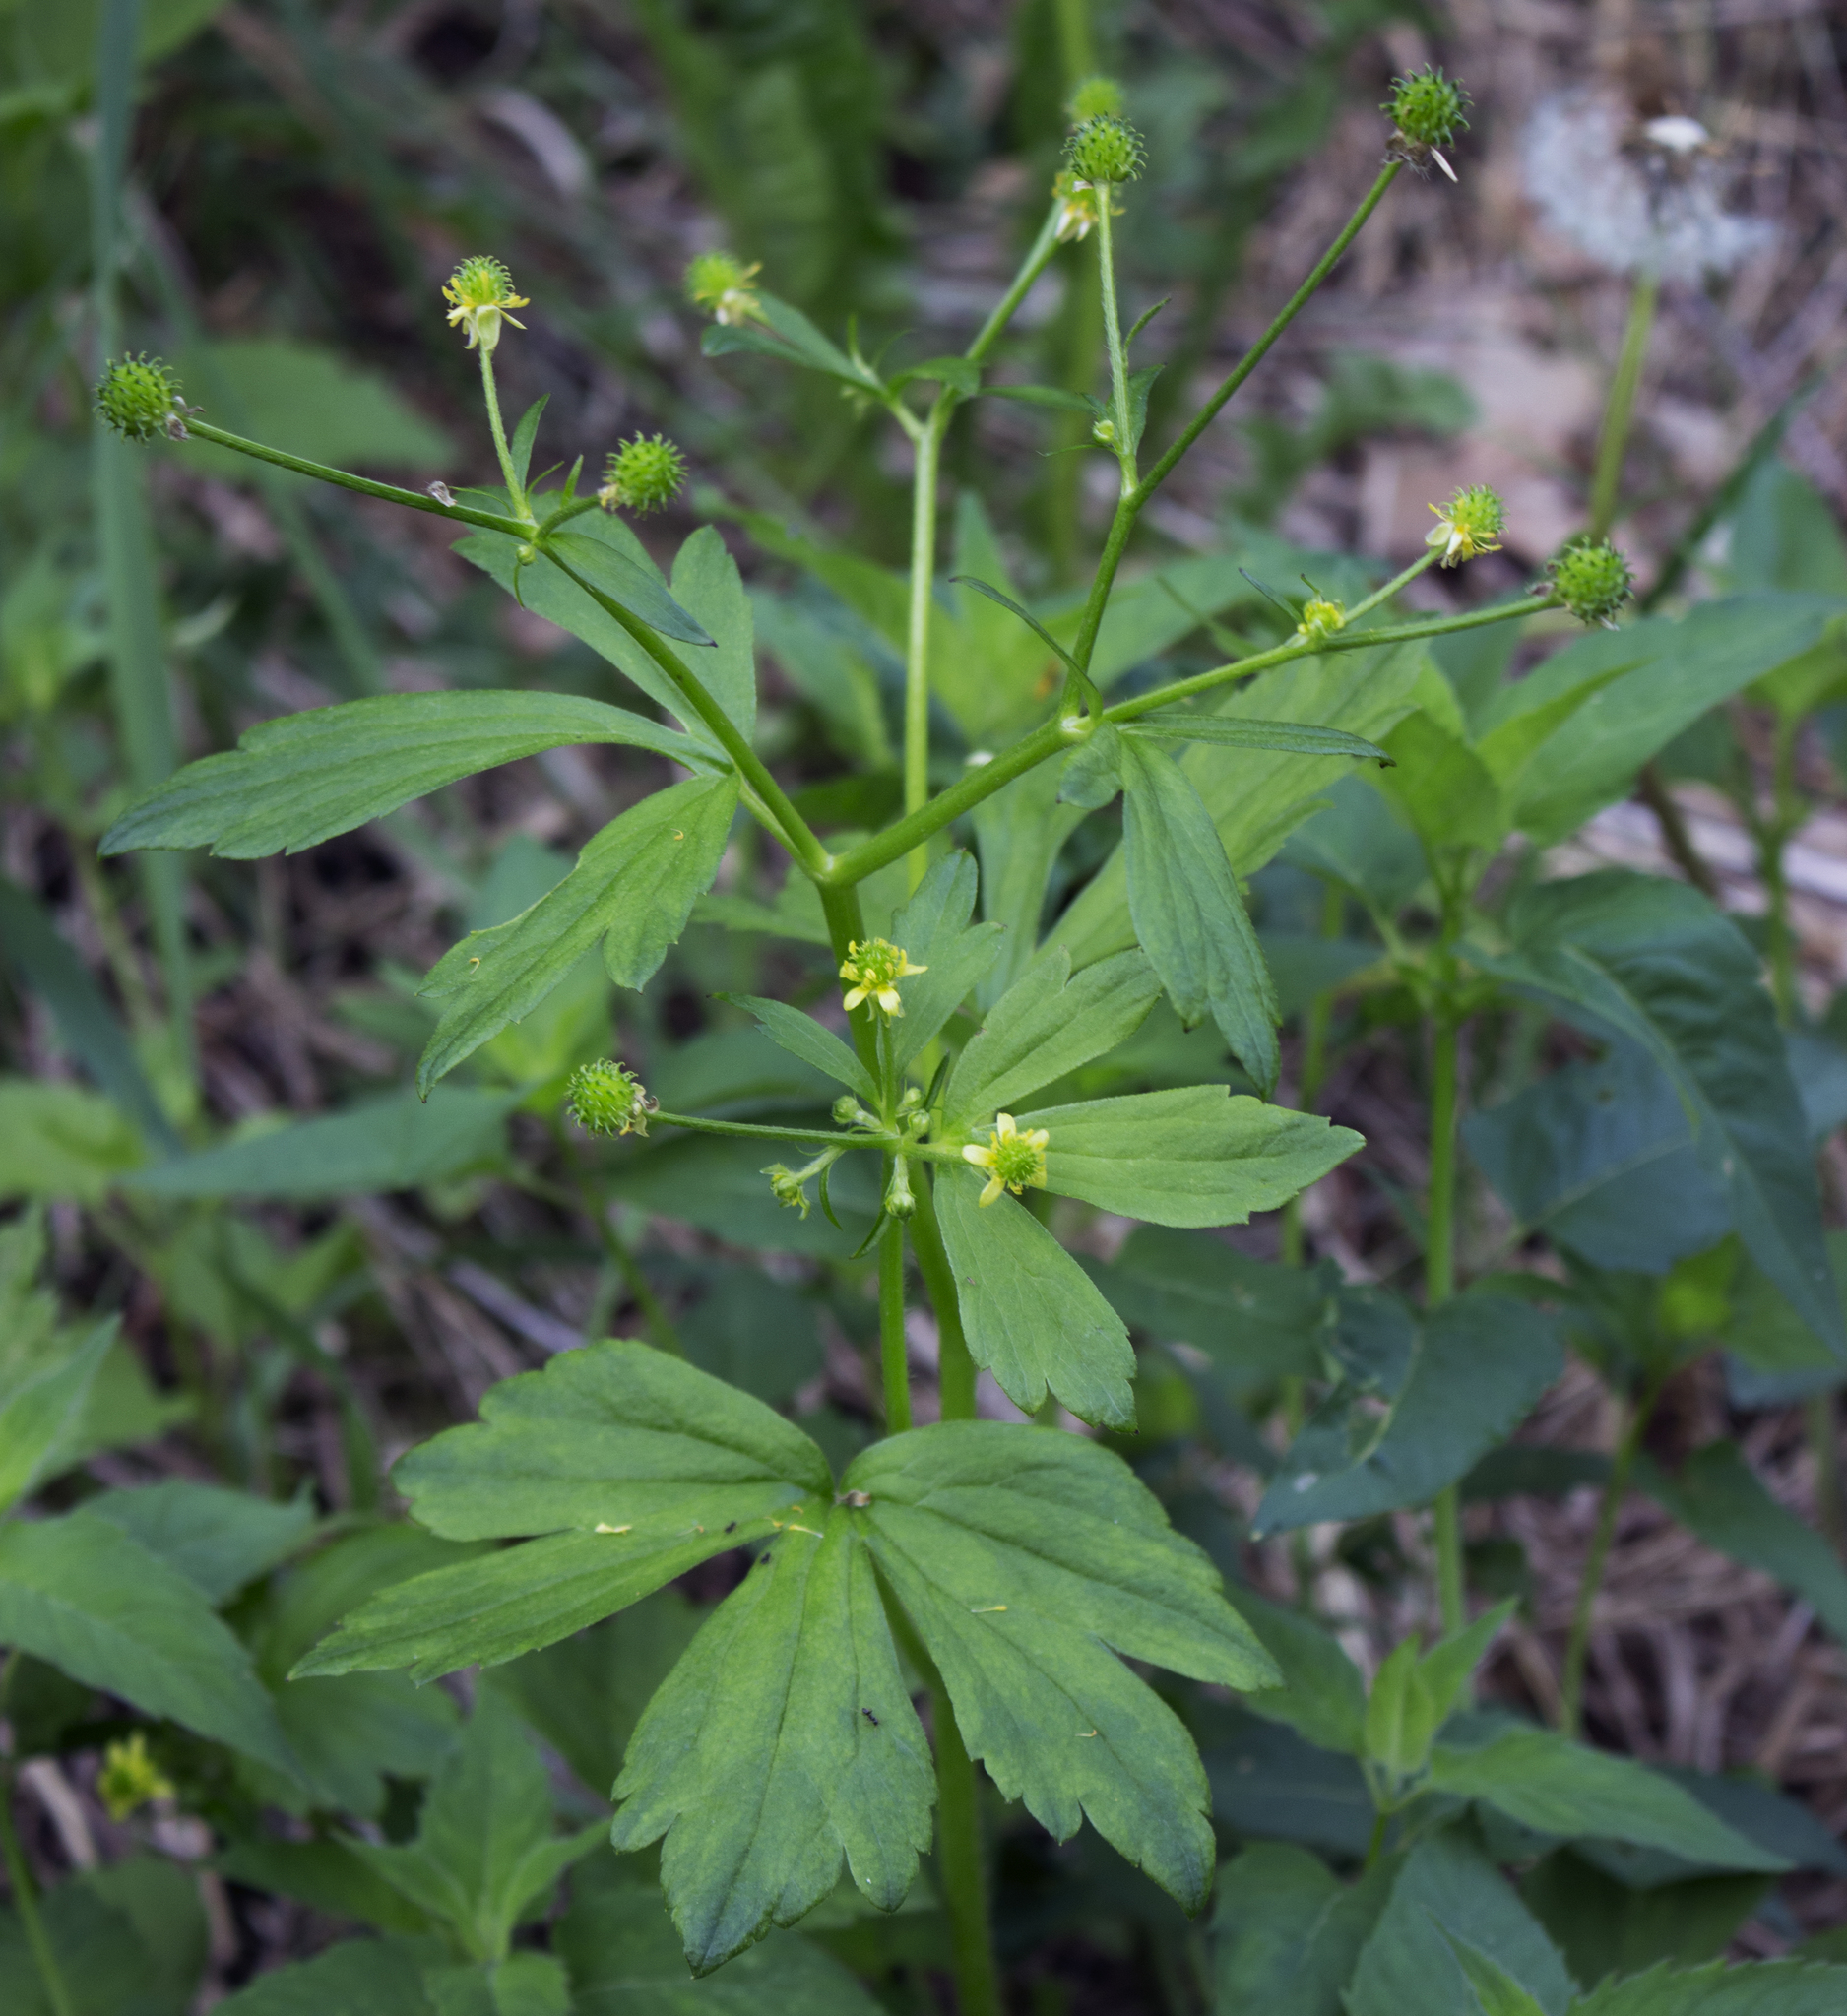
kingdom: Plantae
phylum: Tracheophyta
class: Magnoliopsida
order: Ranunculales
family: Ranunculaceae
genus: Ranunculus
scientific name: Ranunculus recurvatus
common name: Blisterwort
